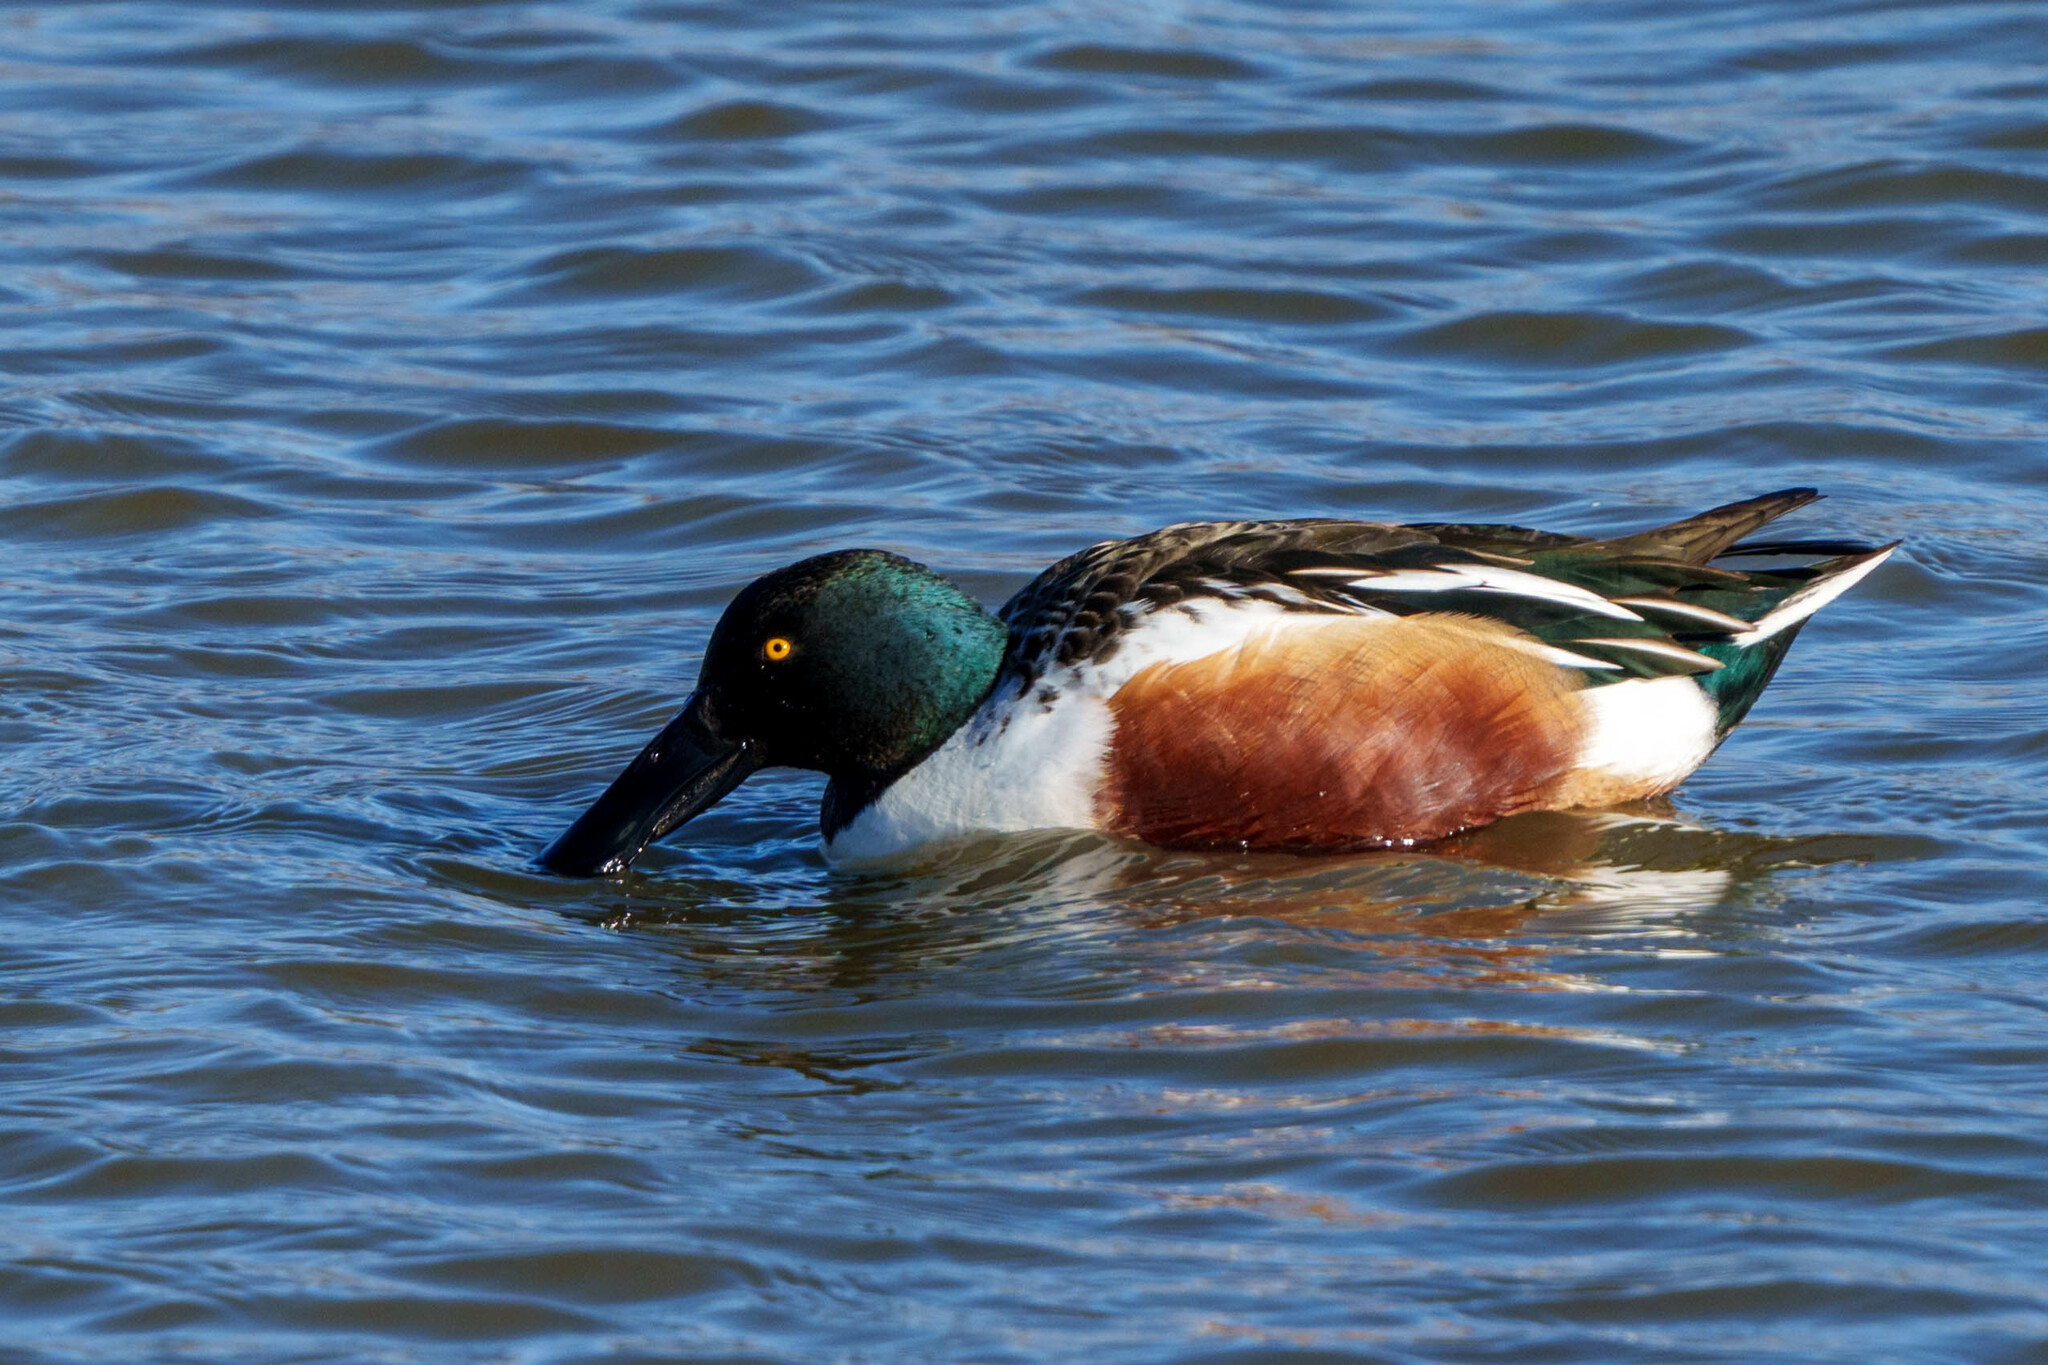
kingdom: Animalia
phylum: Chordata
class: Aves
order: Anseriformes
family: Anatidae
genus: Spatula
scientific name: Spatula clypeata
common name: Northern shoveler
